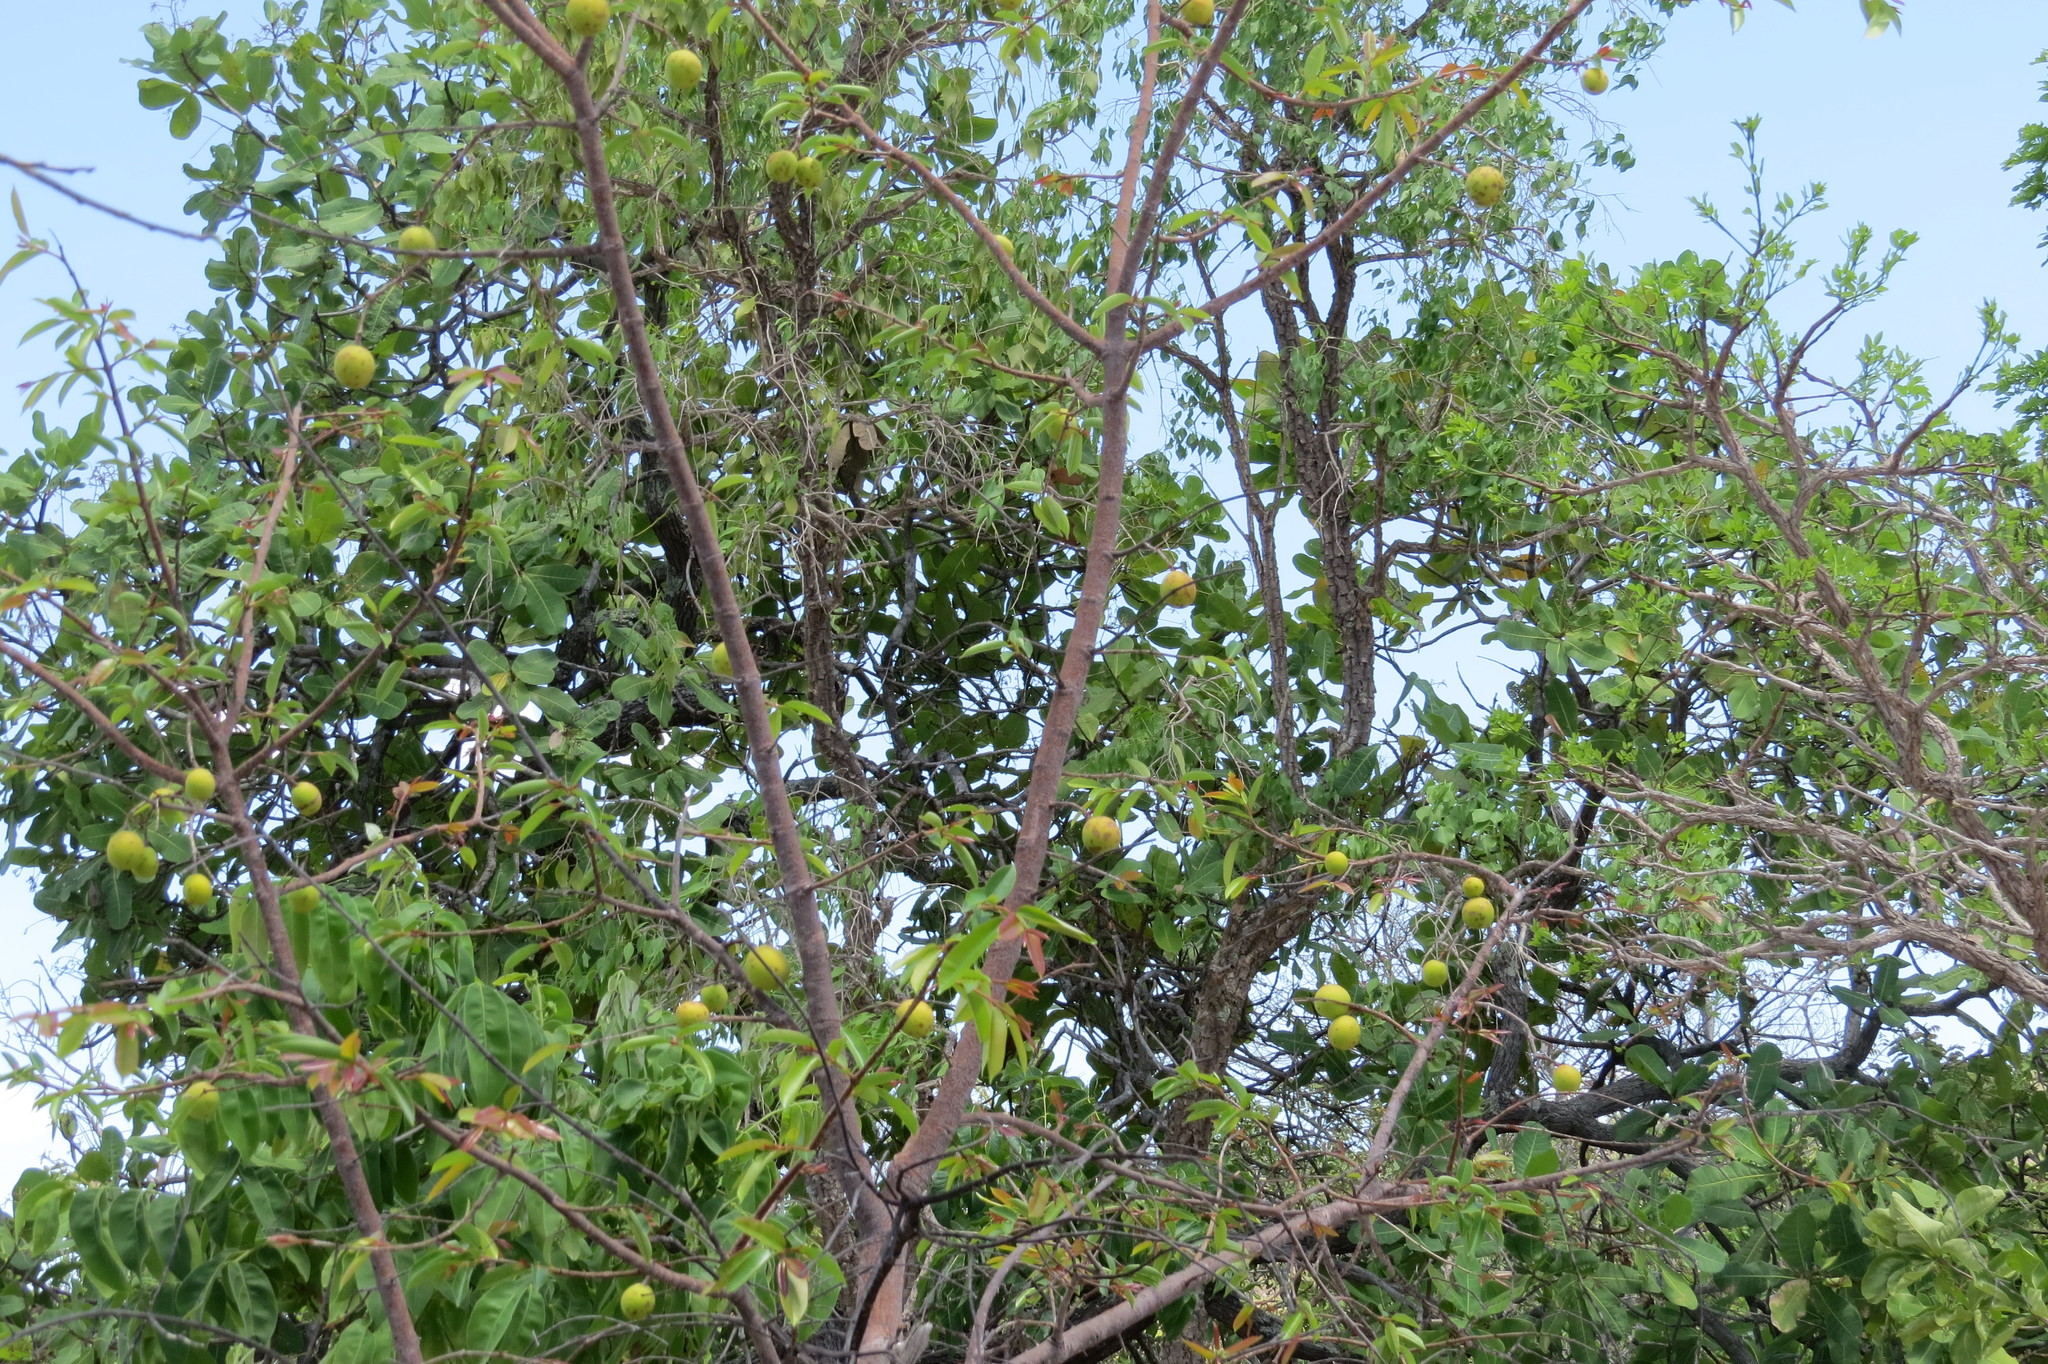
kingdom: Plantae
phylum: Tracheophyta
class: Magnoliopsida
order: Gentianales
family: Apocynaceae
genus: Hancornia
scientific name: Hancornia speciosa
